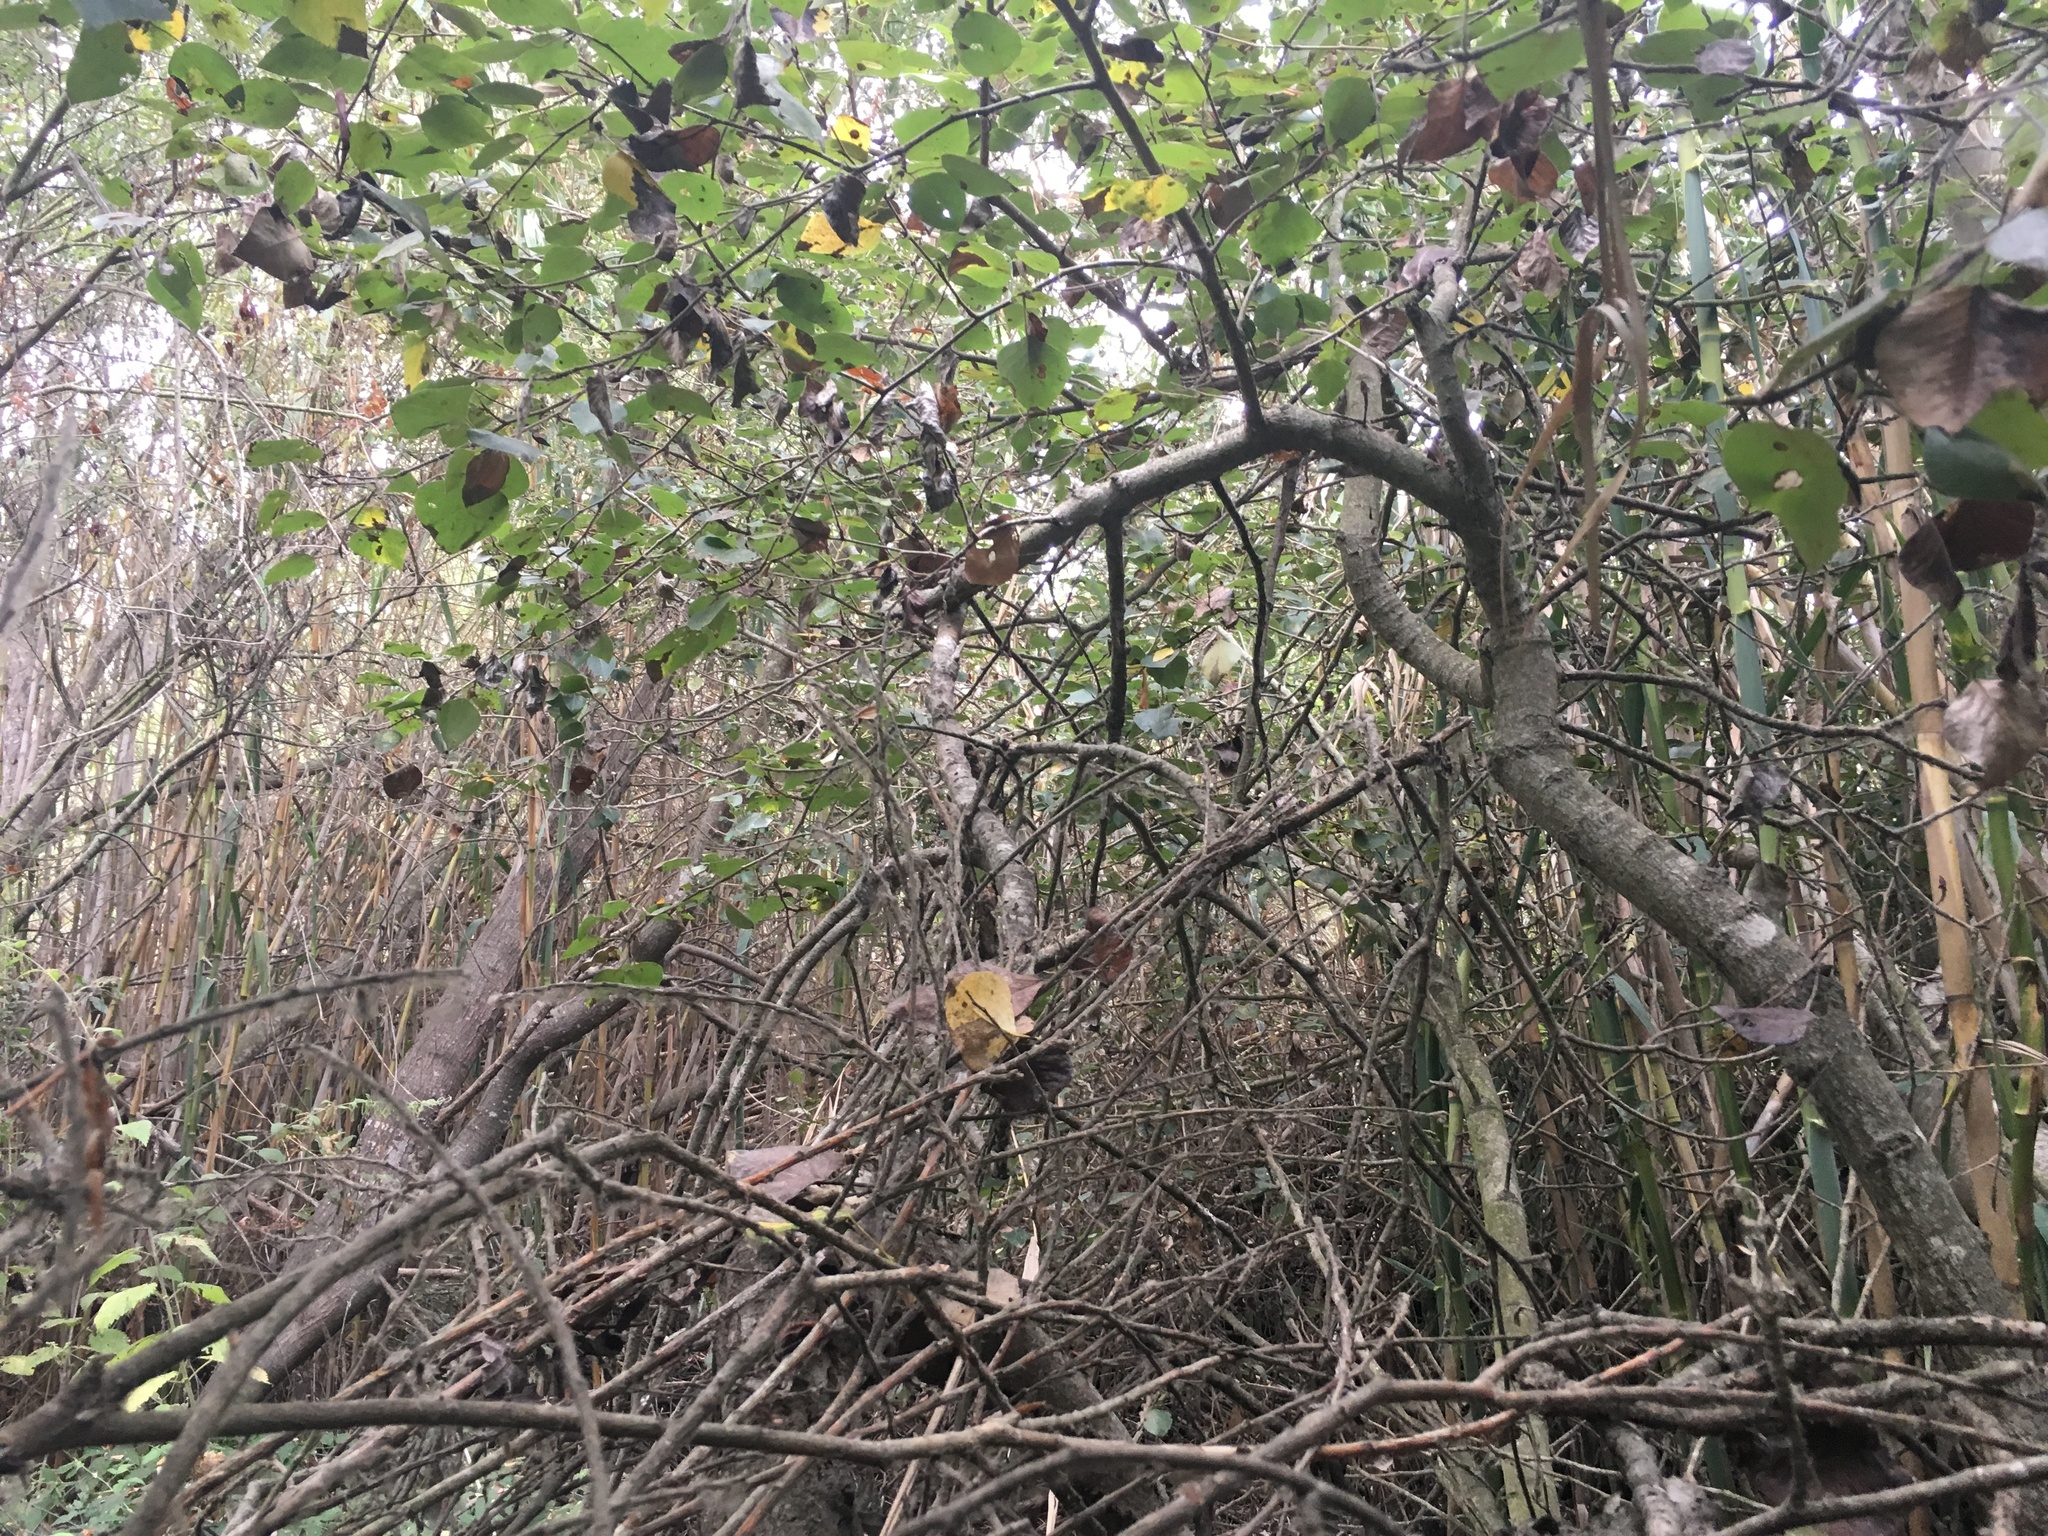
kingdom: Plantae
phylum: Tracheophyta
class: Magnoliopsida
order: Malpighiales
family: Salicaceae
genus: Populus
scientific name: Populus trichocarpa
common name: Black cottonwood
